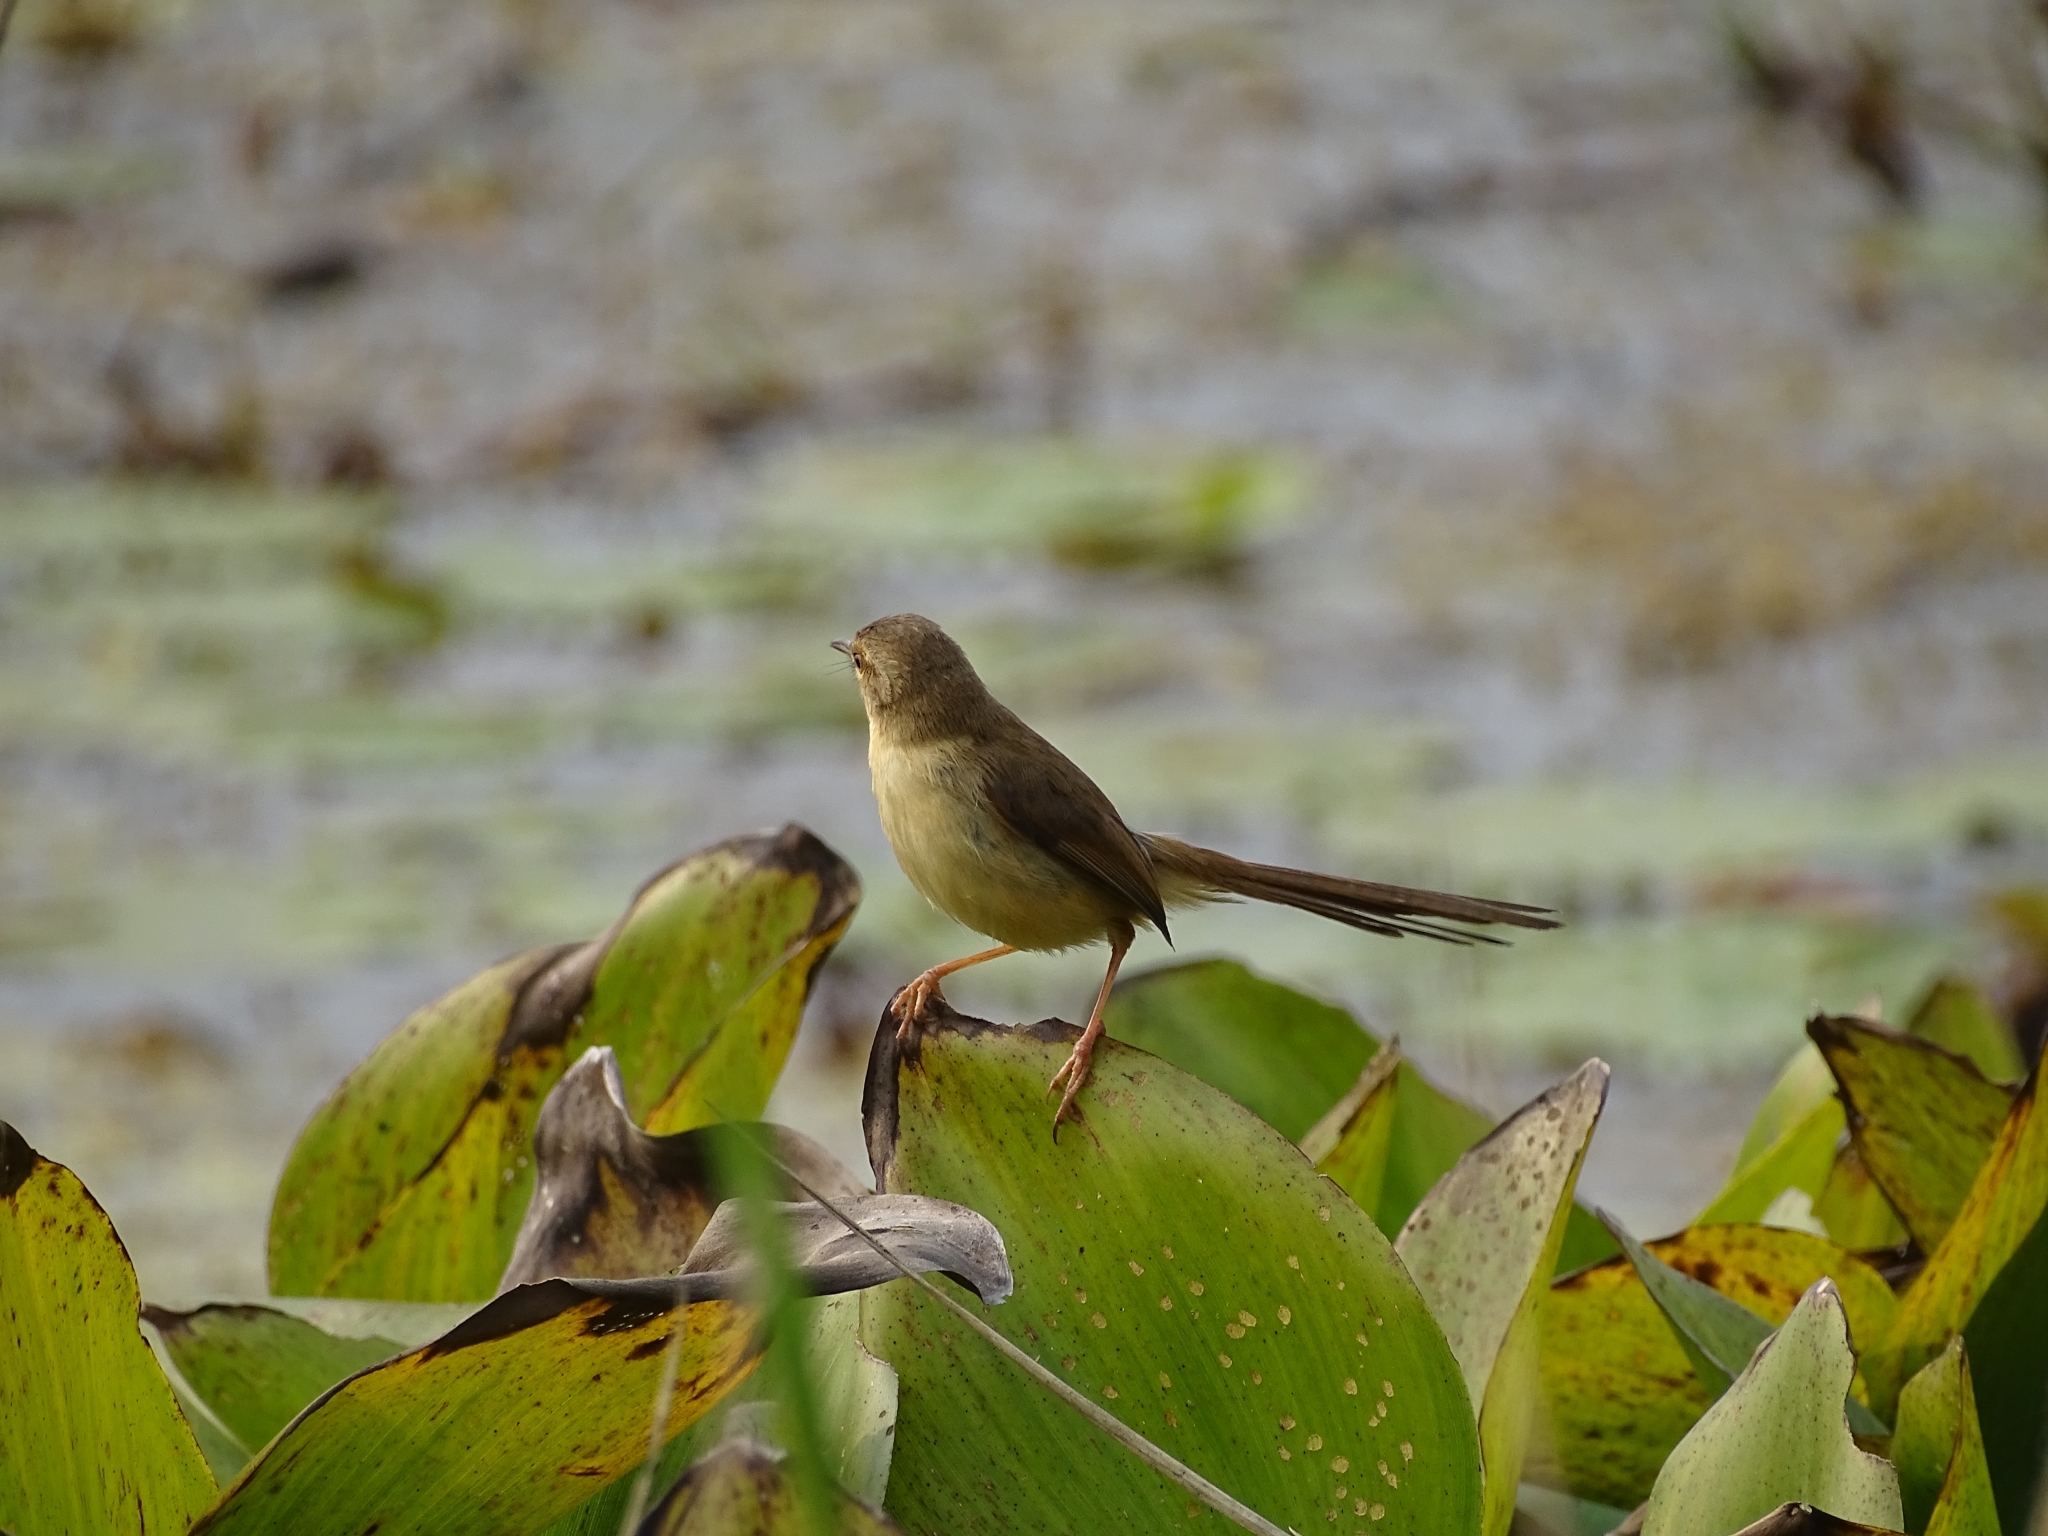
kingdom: Animalia
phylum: Chordata
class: Aves
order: Passeriformes
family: Cisticolidae
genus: Prinia
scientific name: Prinia inornata
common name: Plain prinia
